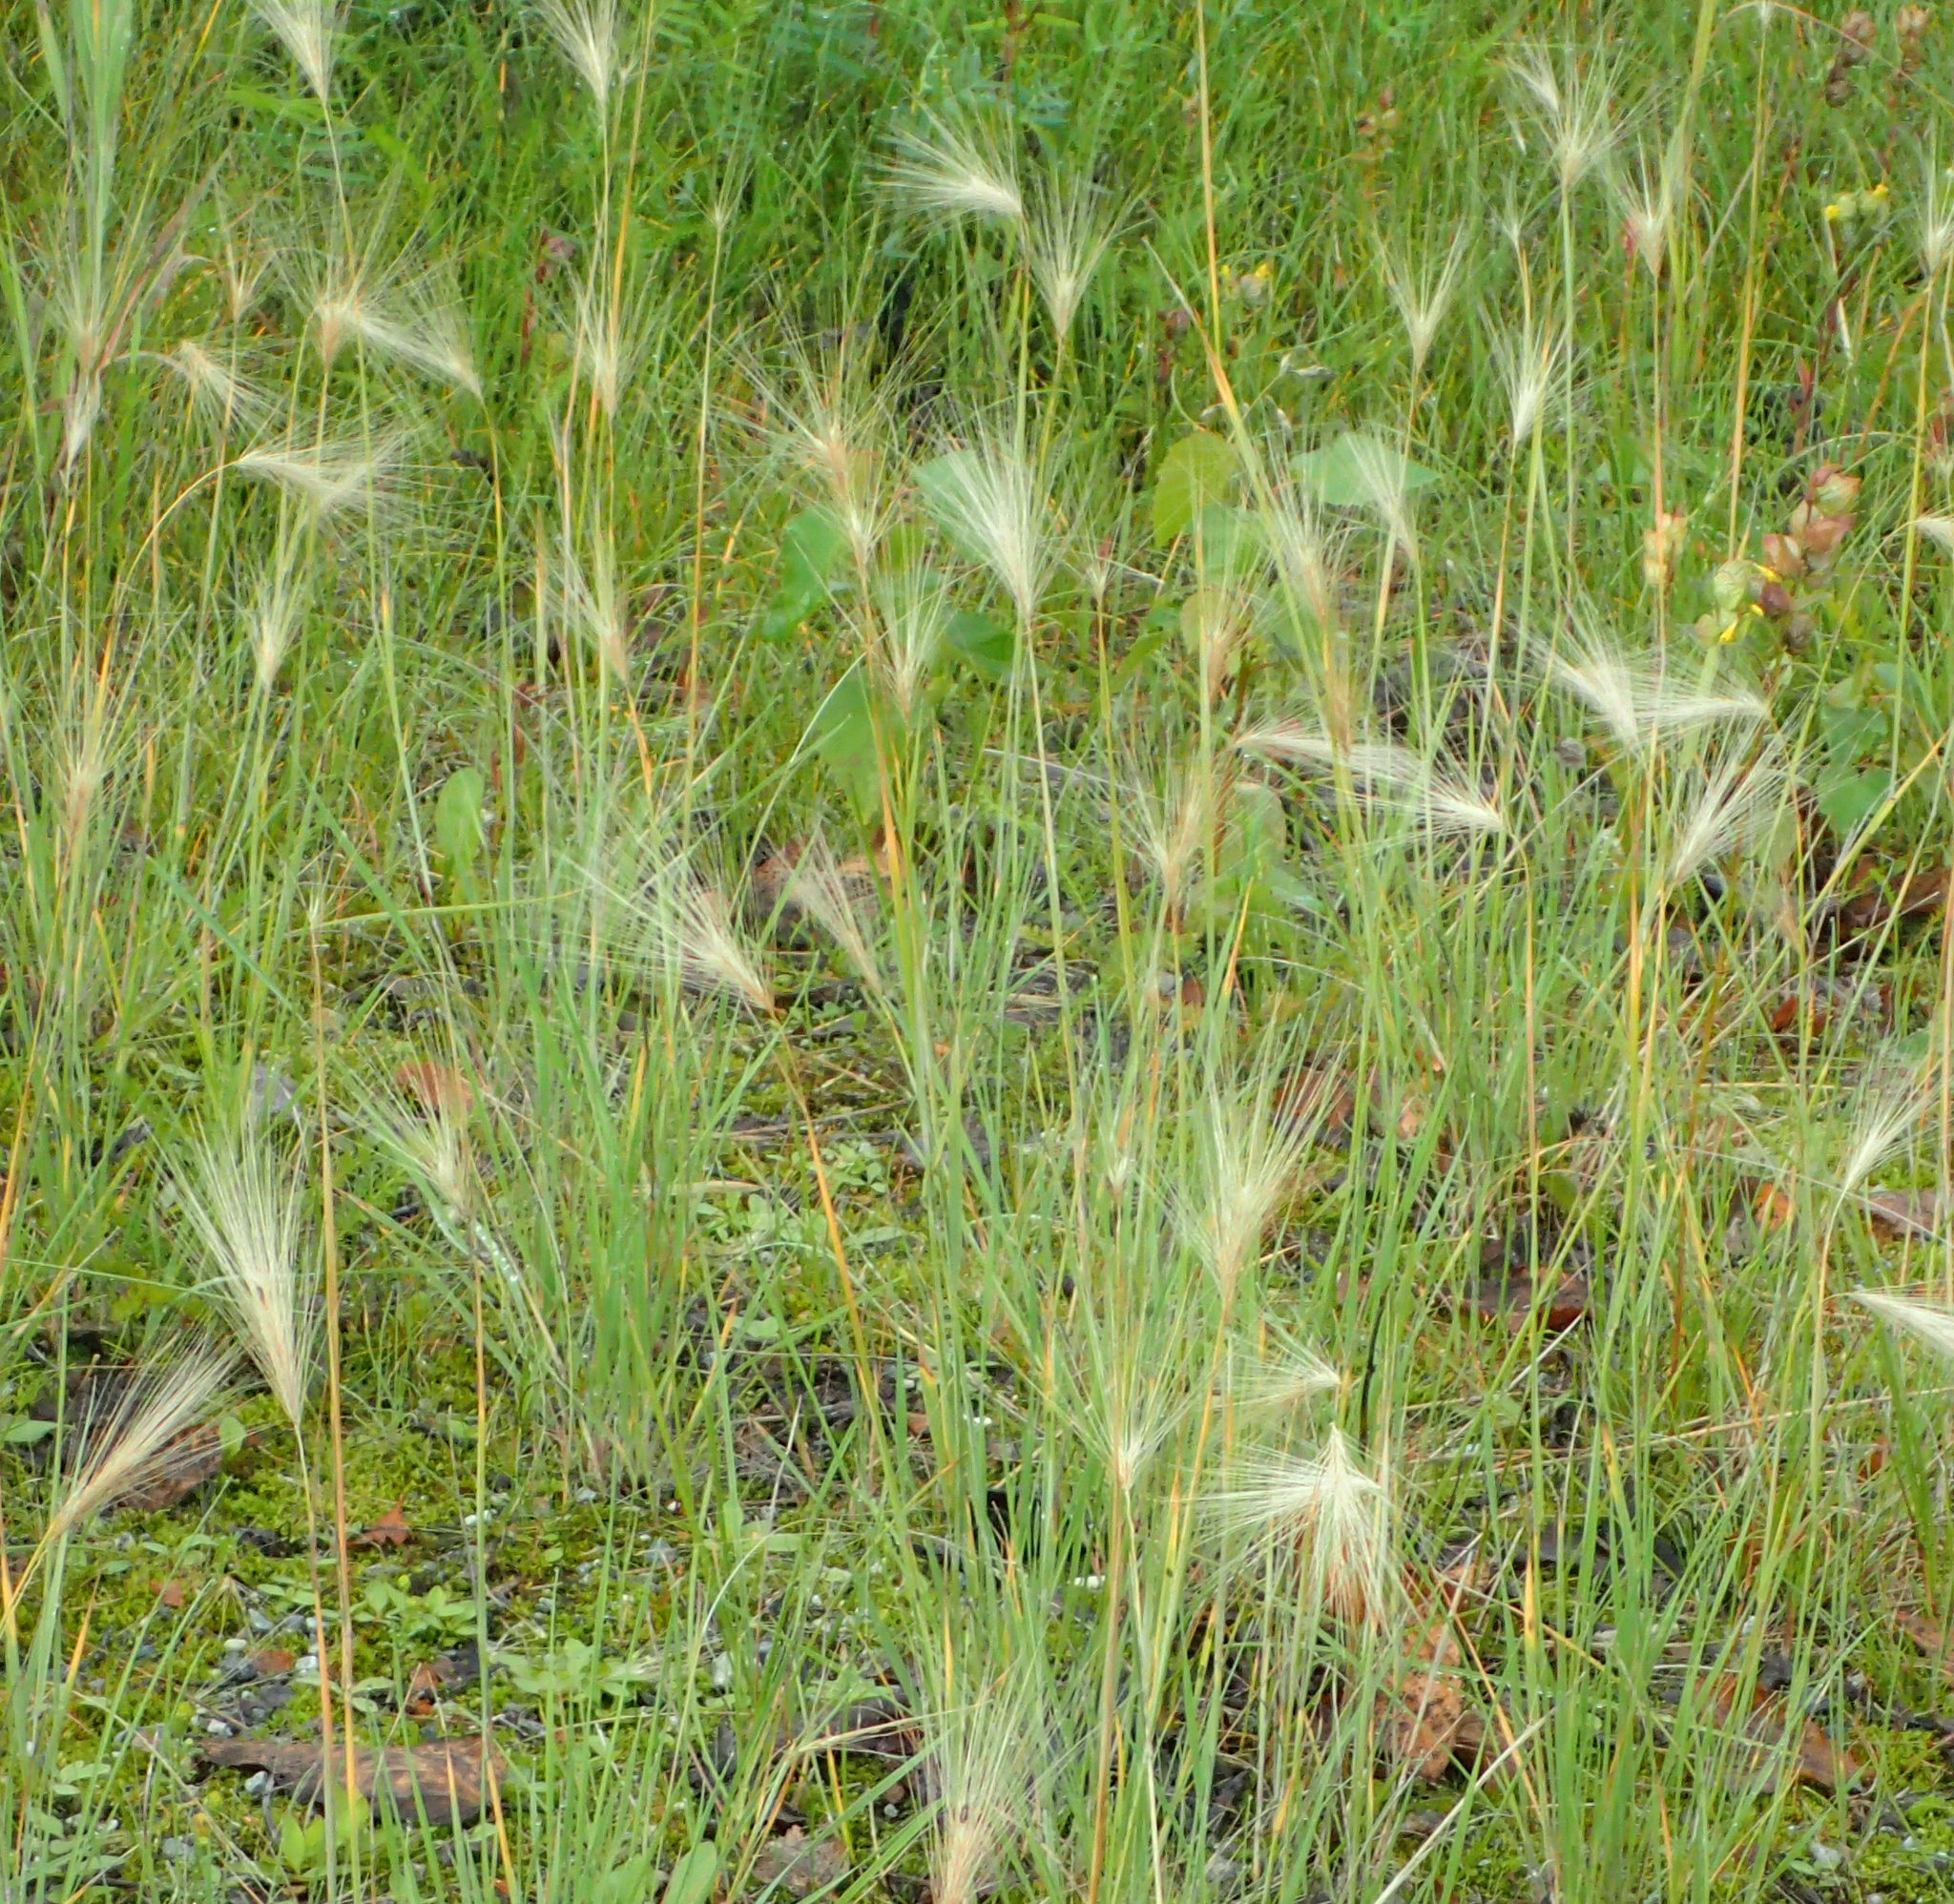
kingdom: Plantae
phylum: Tracheophyta
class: Liliopsida
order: Poales
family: Poaceae
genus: Hordeum
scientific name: Hordeum jubatum
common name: Foxtail barley
